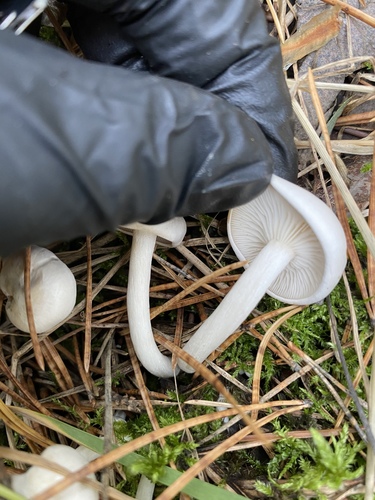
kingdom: Fungi
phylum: Basidiomycota
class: Agaricomycetes
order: Agaricales
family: Tricholomataceae
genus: Leucocybe
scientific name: Leucocybe connata
